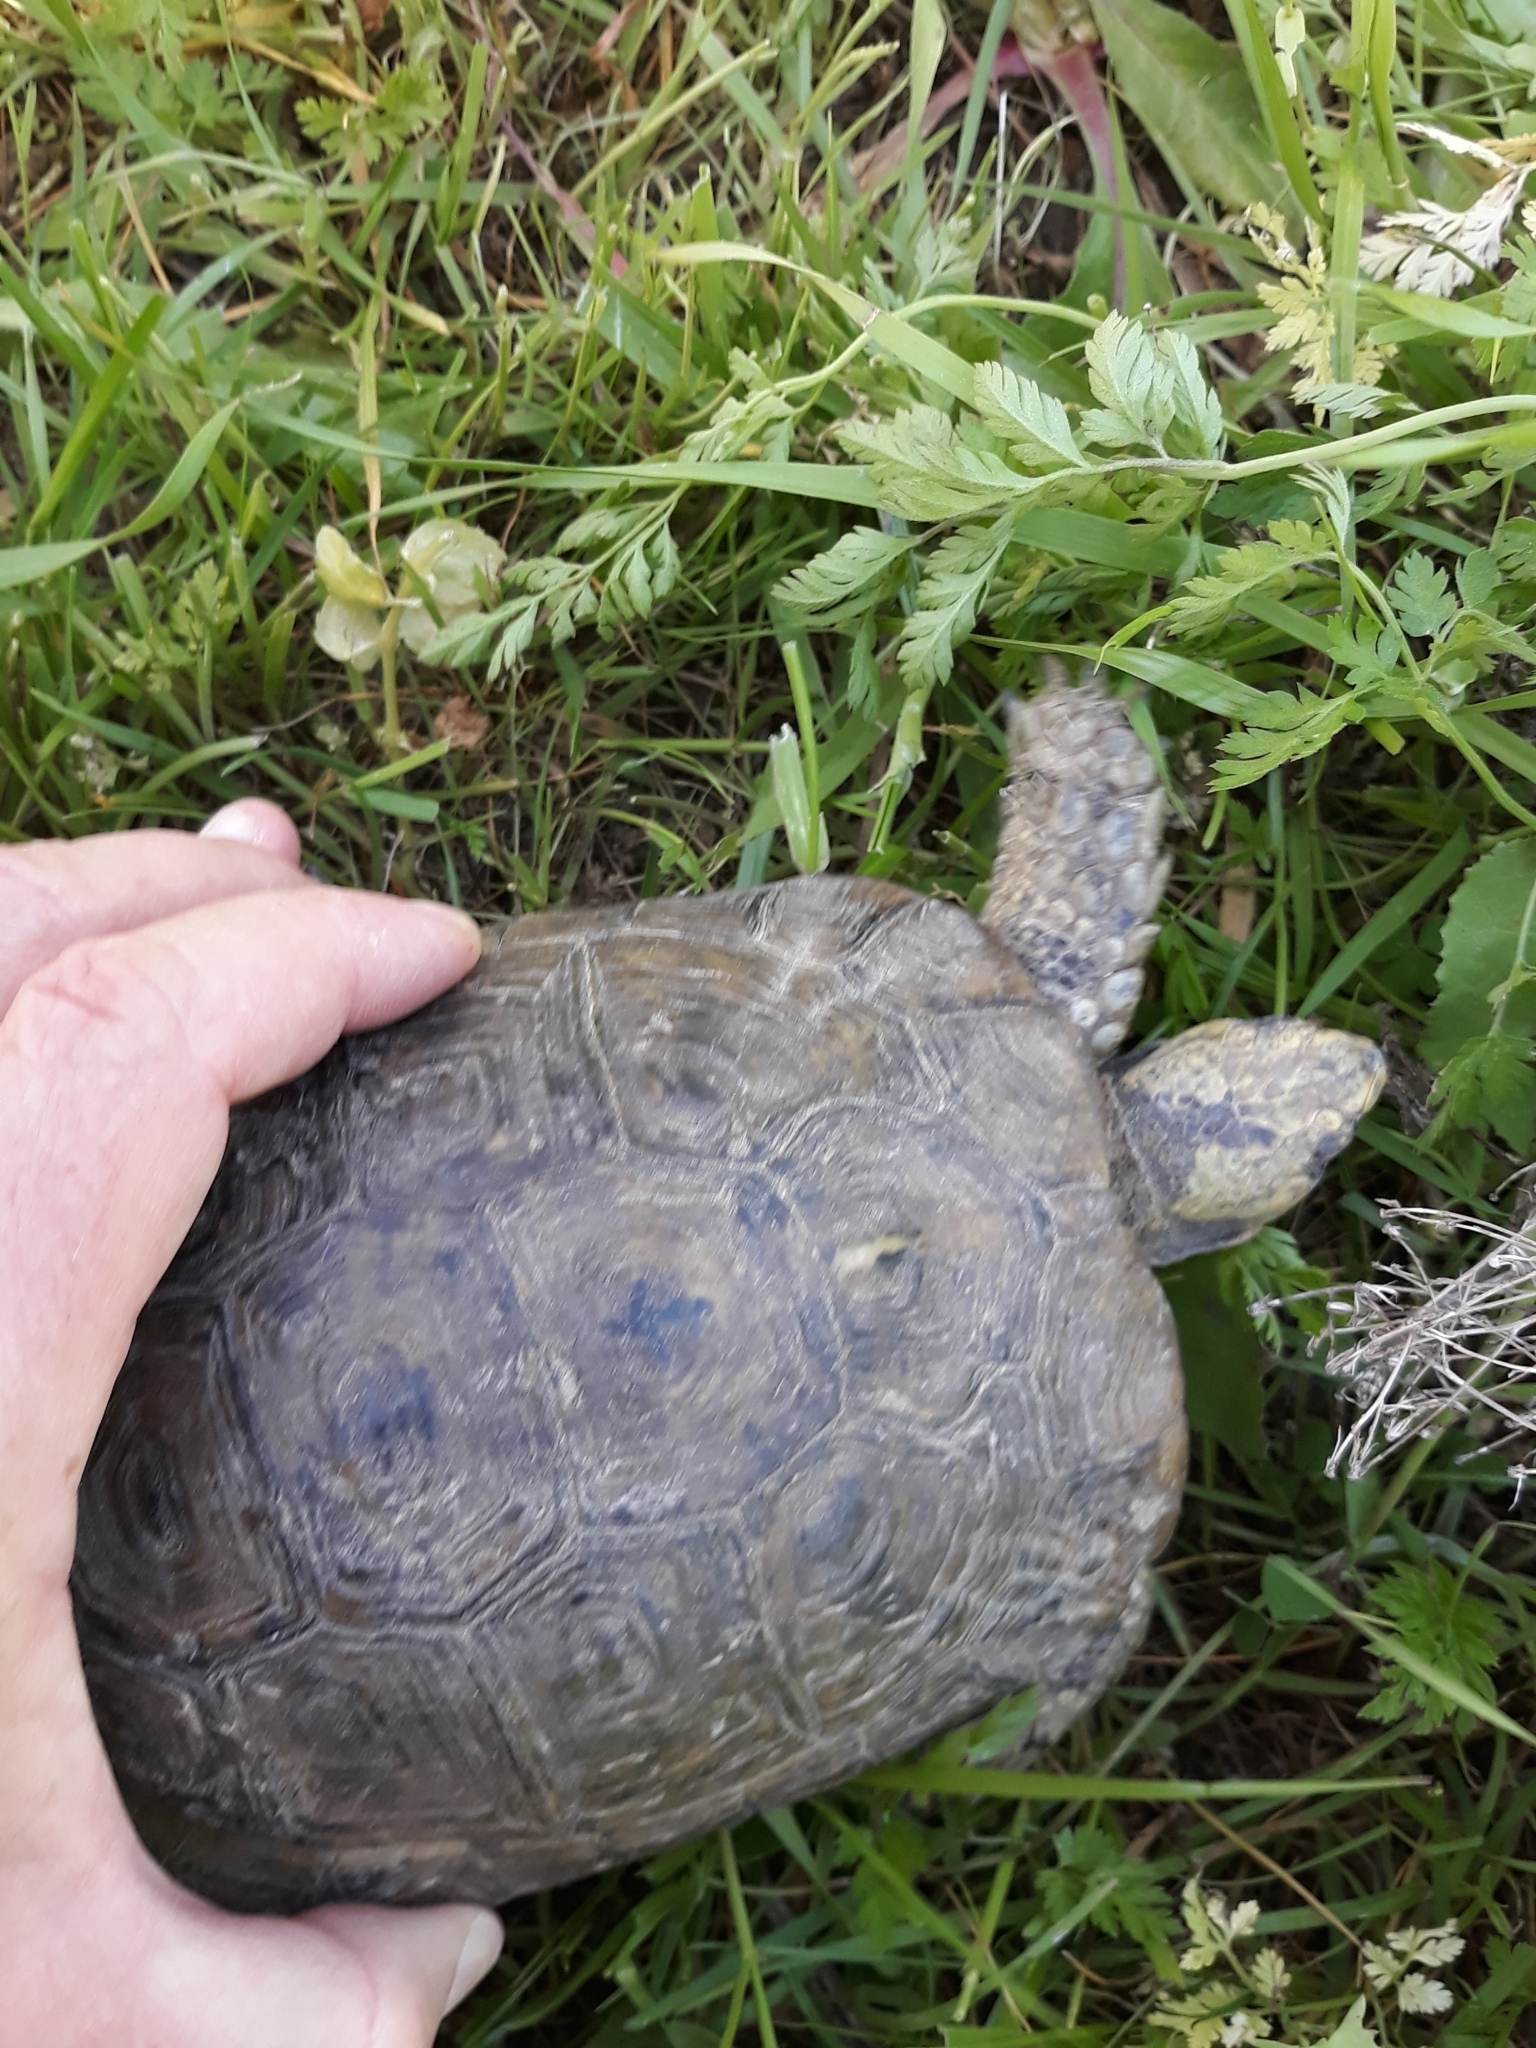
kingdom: Animalia
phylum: Chordata
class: Testudines
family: Testudinidae
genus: Testudo
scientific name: Testudo graeca
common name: Common tortoise
